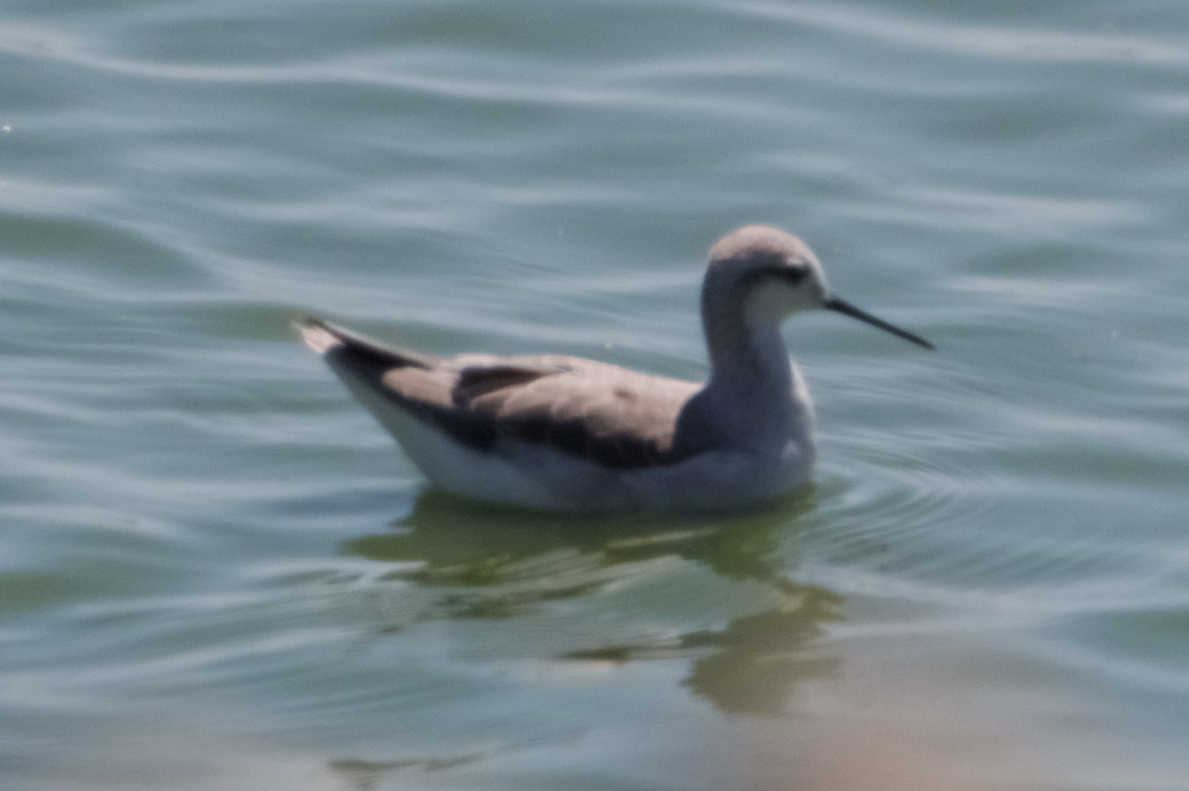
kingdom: Animalia
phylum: Chordata
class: Aves
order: Charadriiformes
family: Scolopacidae
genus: Phalaropus
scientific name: Phalaropus tricolor
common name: Wilson's phalarope
